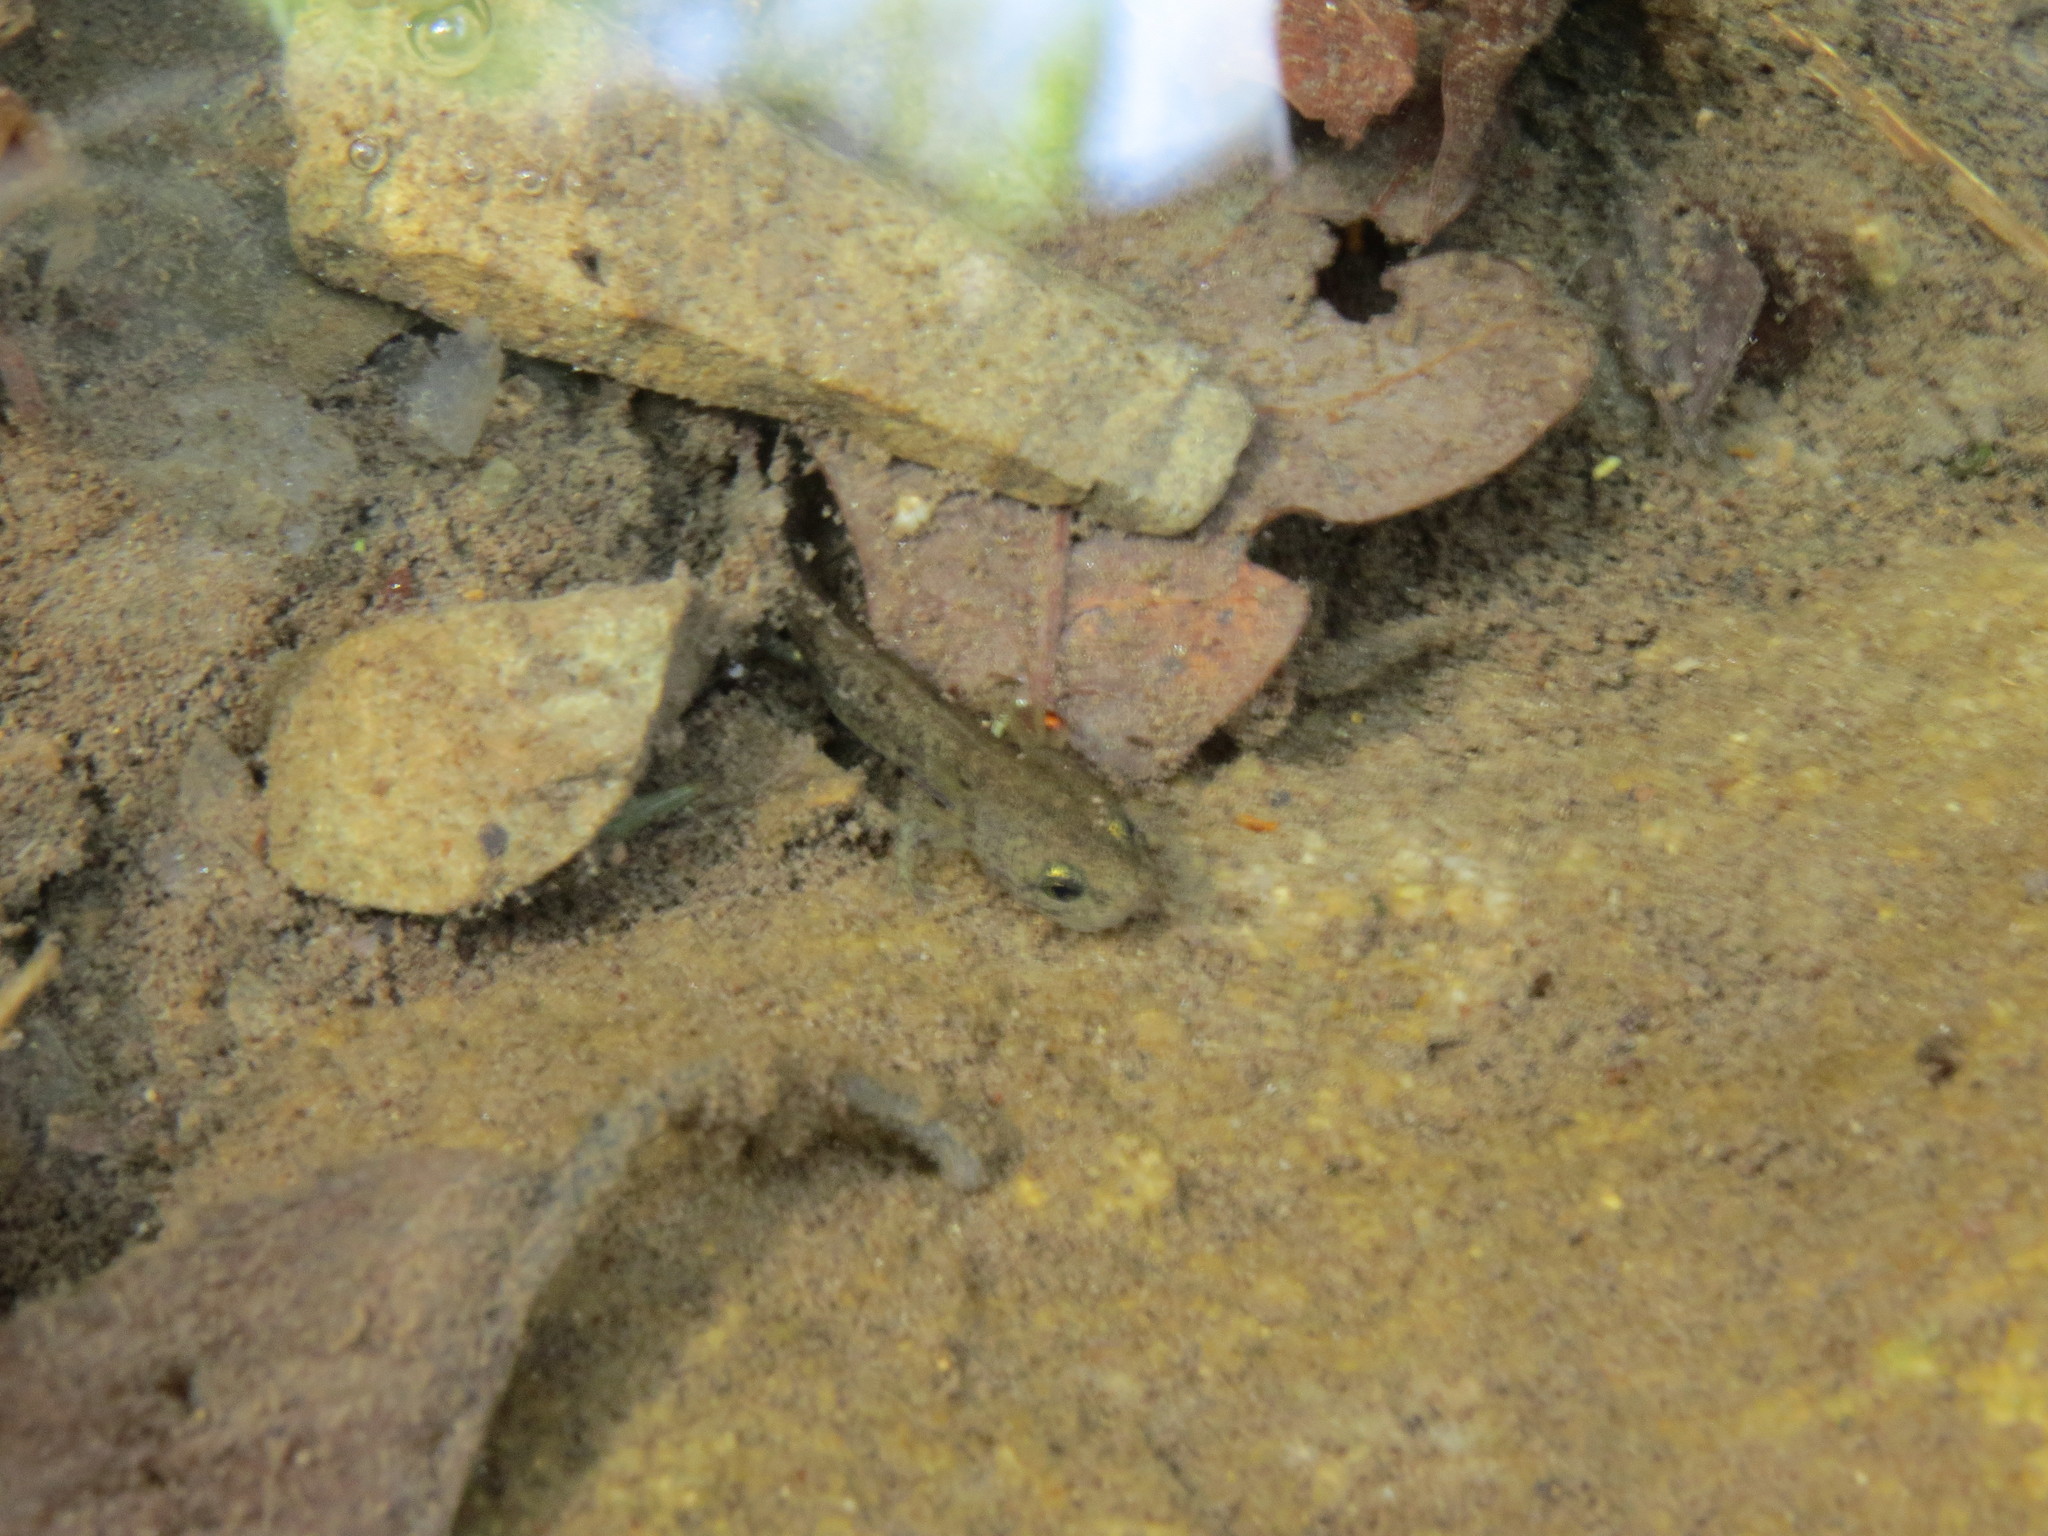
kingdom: Animalia
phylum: Chordata
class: Amphibia
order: Caudata
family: Salamandridae
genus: Salamandra
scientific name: Salamandra salamandra
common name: Fire salamander
